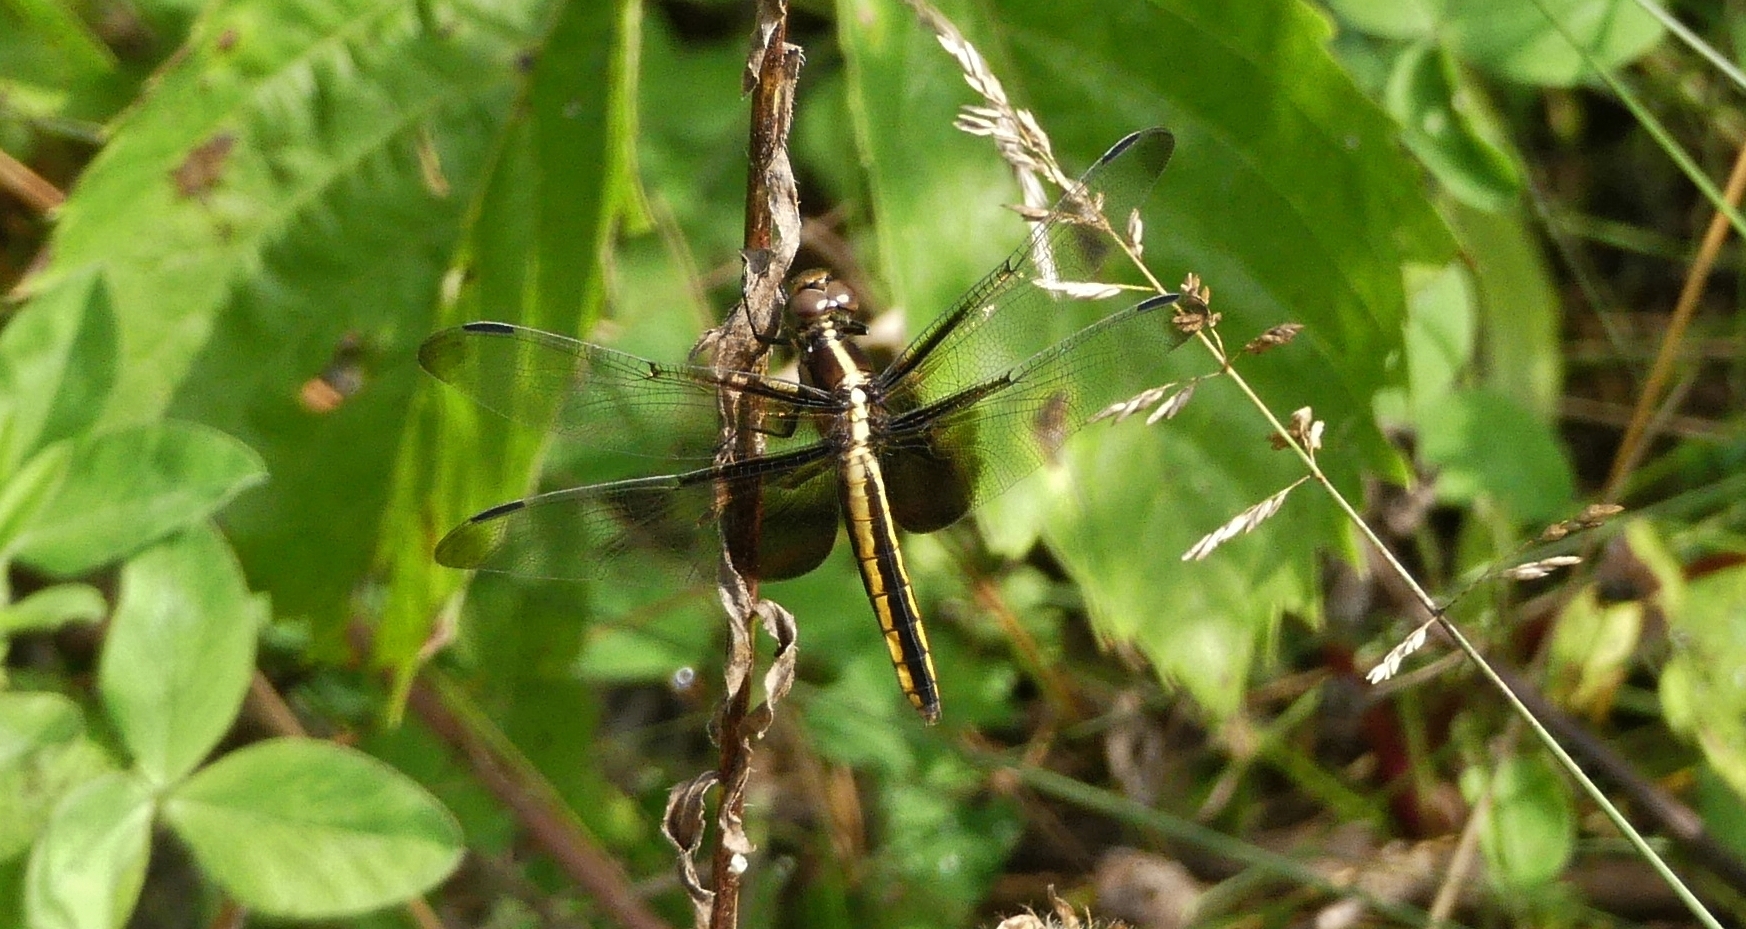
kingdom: Animalia
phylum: Arthropoda
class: Insecta
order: Odonata
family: Libellulidae
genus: Libellula
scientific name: Libellula luctuosa
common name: Widow skimmer
